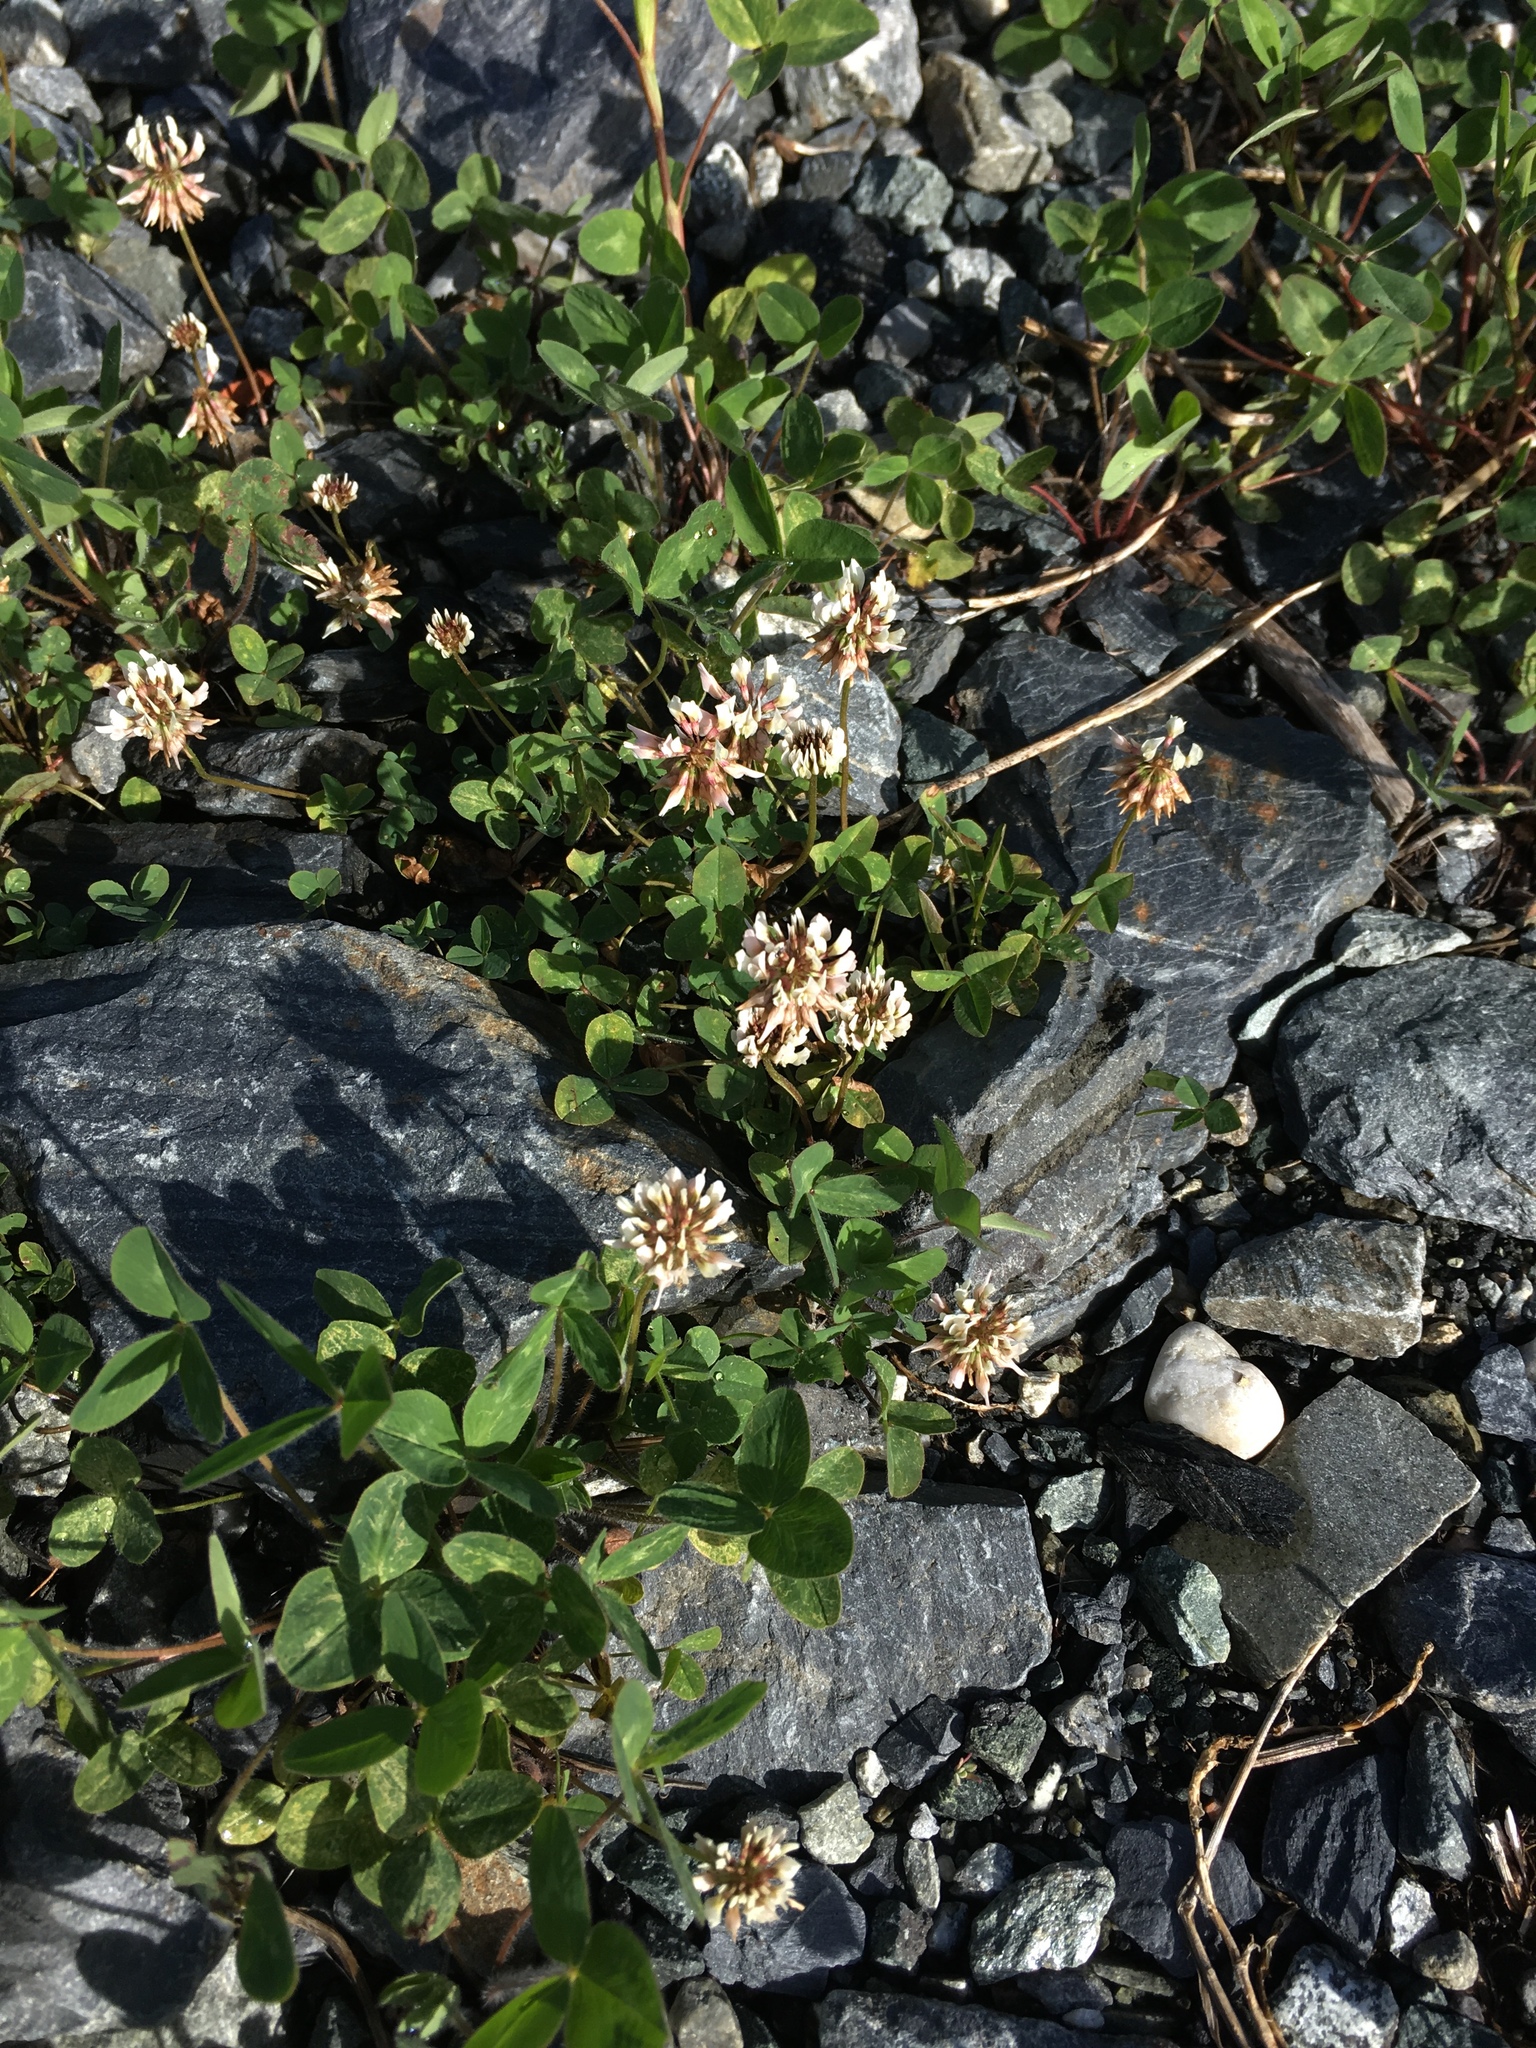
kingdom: Plantae
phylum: Tracheophyta
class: Magnoliopsida
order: Fabales
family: Fabaceae
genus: Trifolium
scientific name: Trifolium repens
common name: White clover
